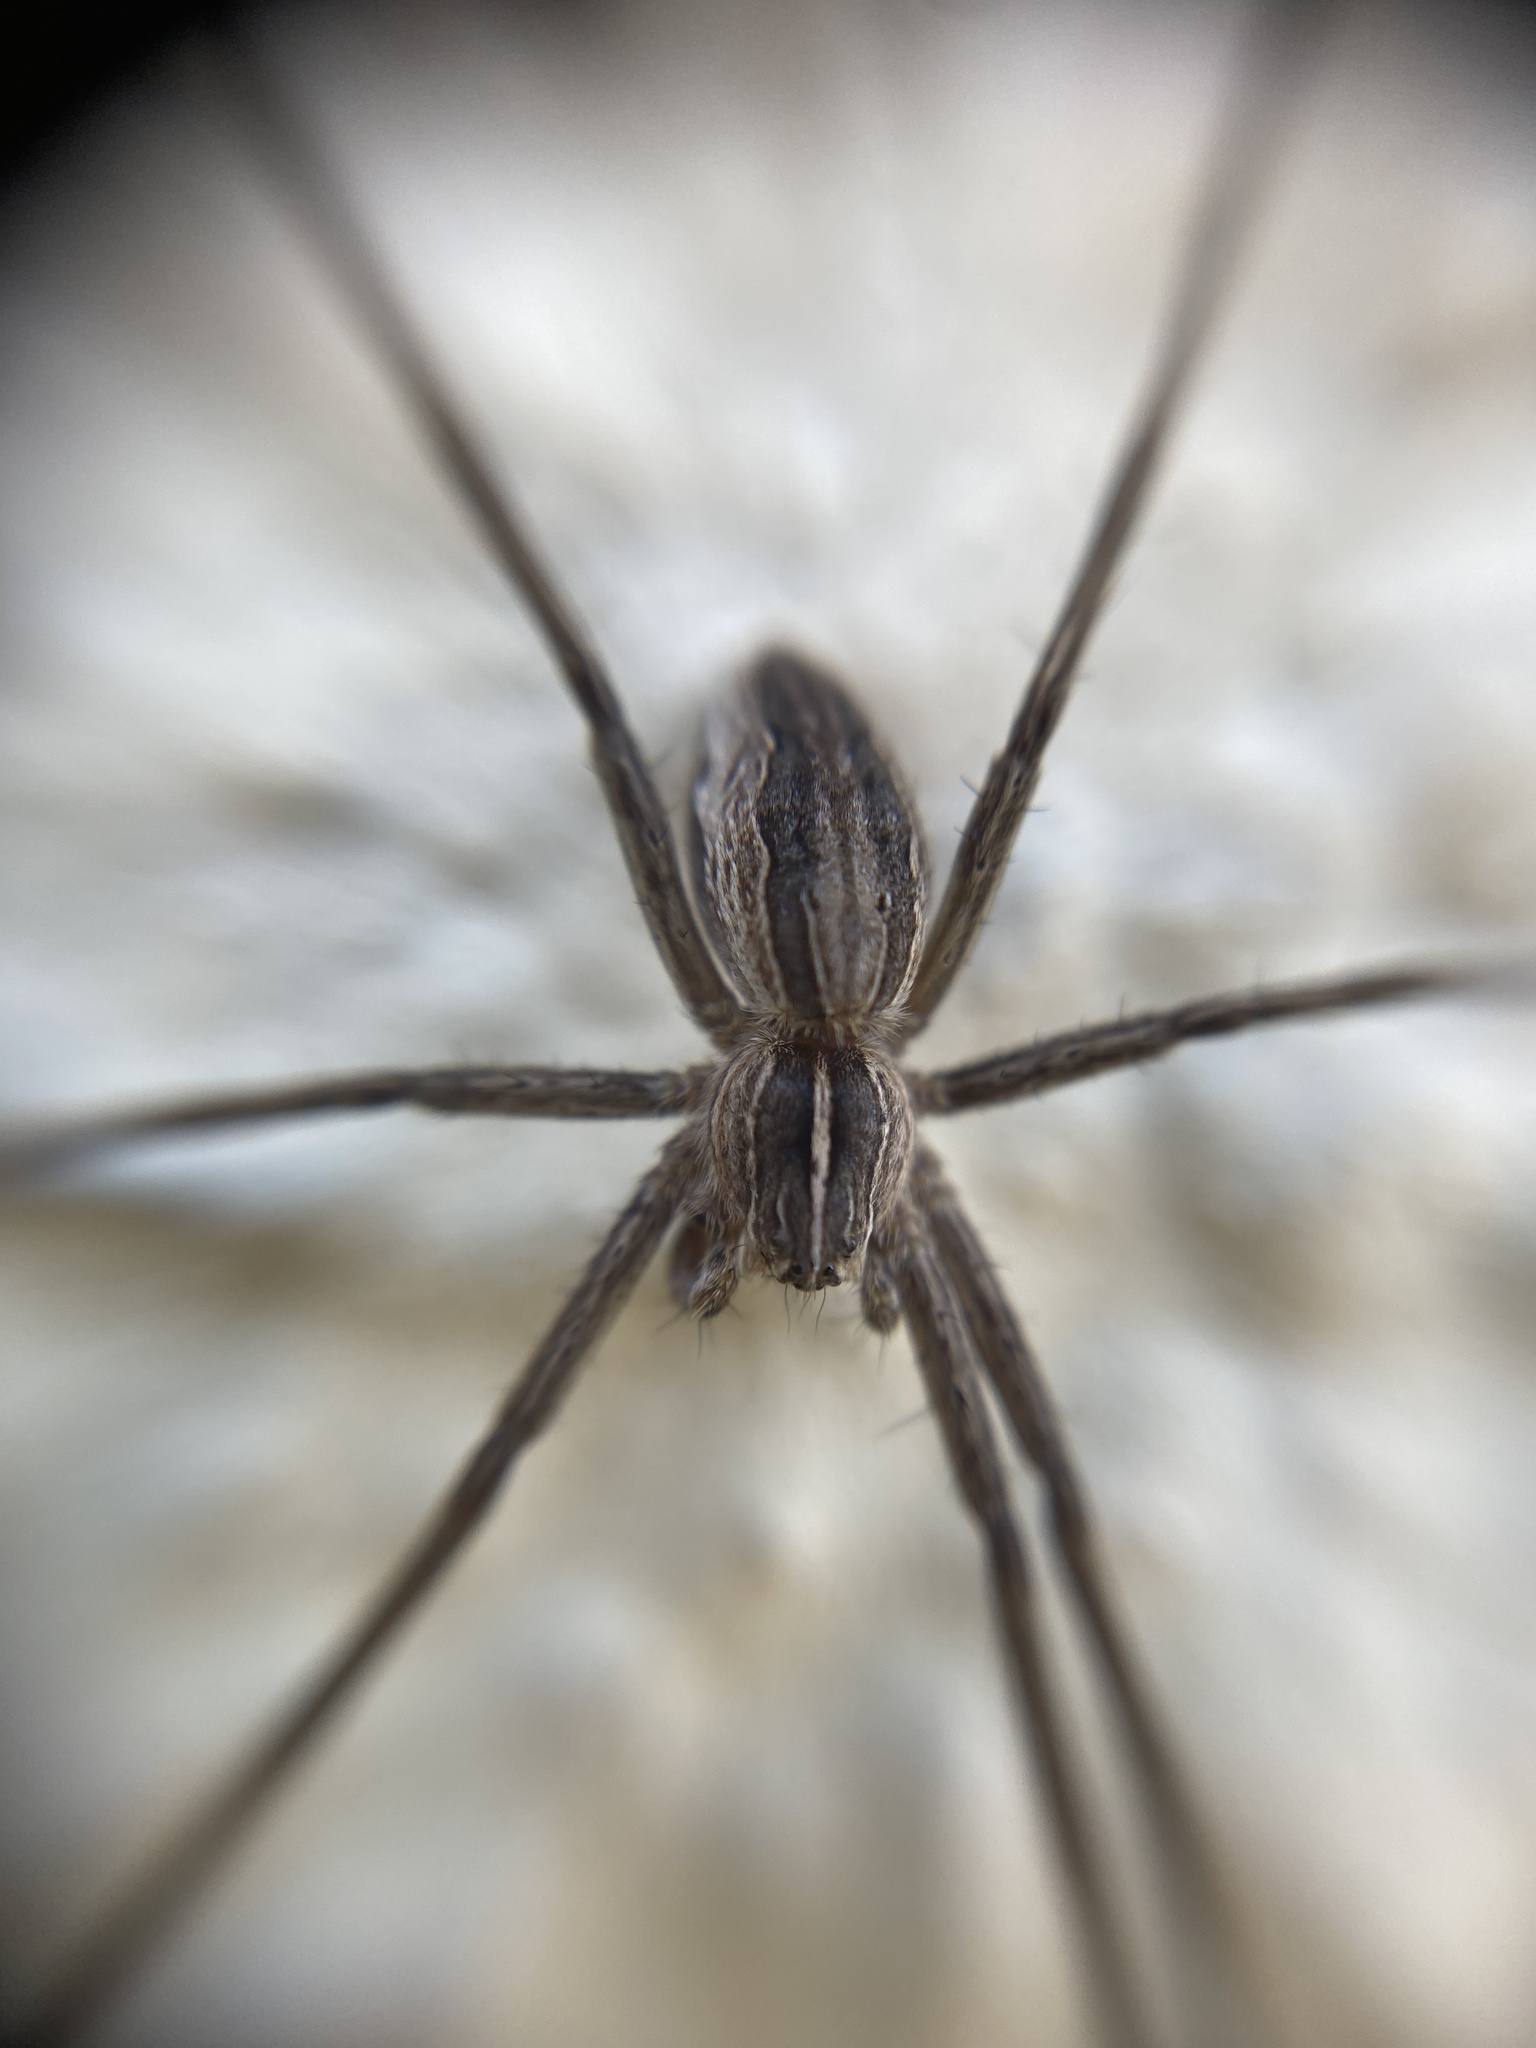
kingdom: Animalia
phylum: Arthropoda
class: Arachnida
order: Araneae
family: Pisauridae
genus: Pisaura
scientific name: Pisaura mirabilis
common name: Tent spider
